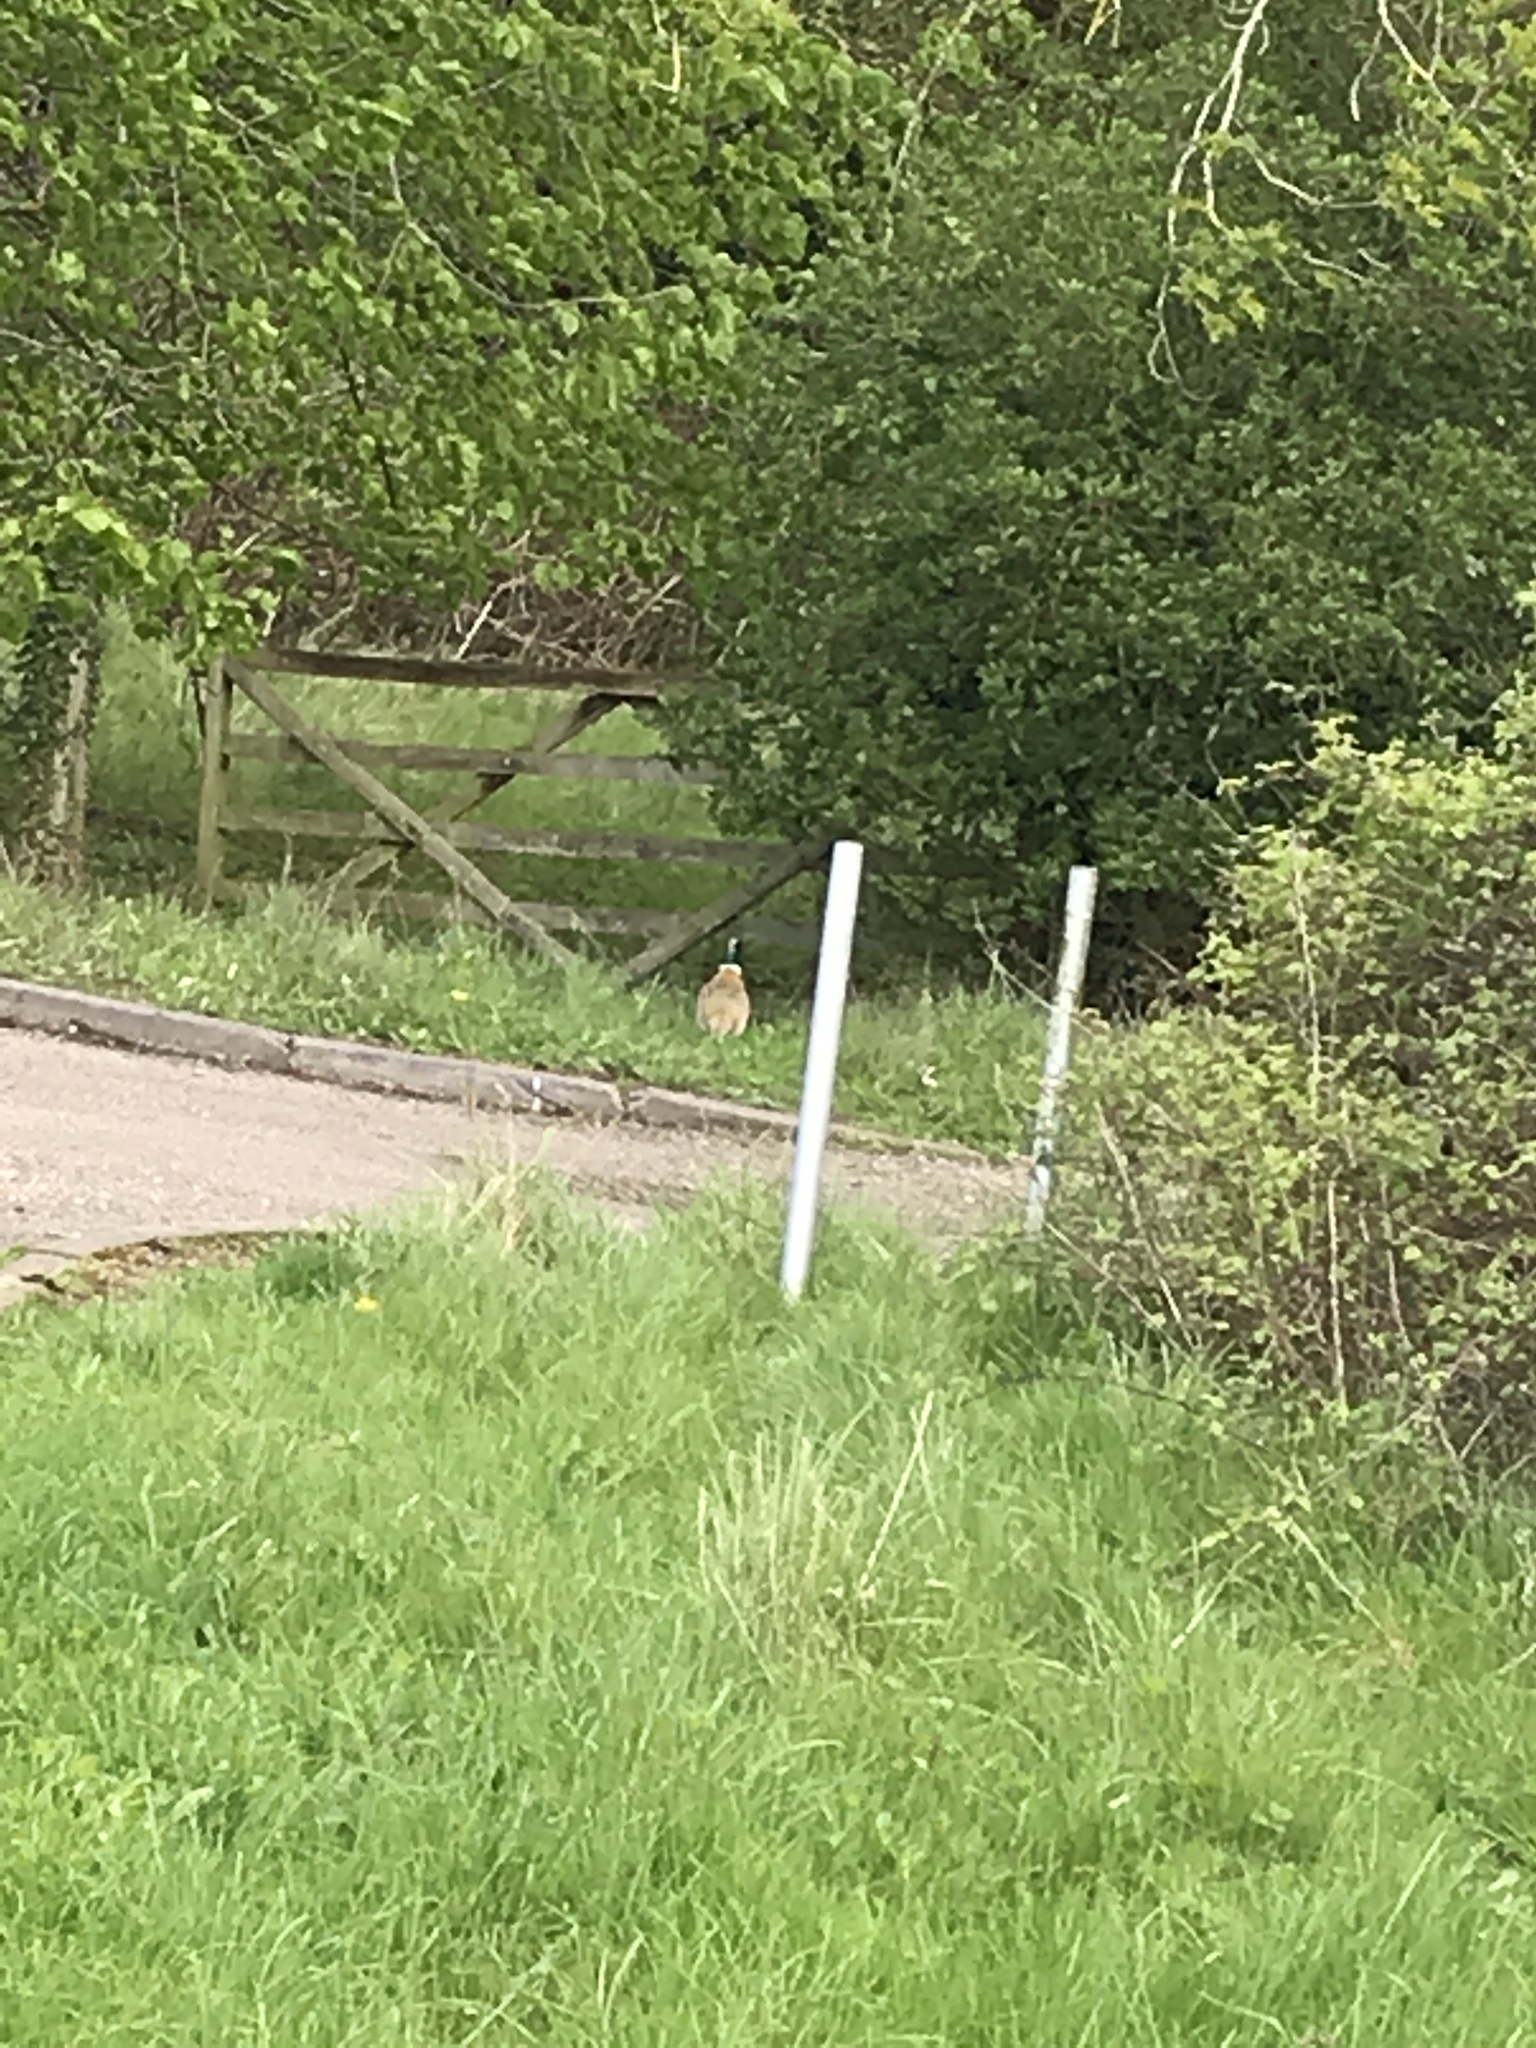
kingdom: Animalia
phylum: Chordata
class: Aves
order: Galliformes
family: Phasianidae
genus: Phasianus
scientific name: Phasianus colchicus
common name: Common pheasant
